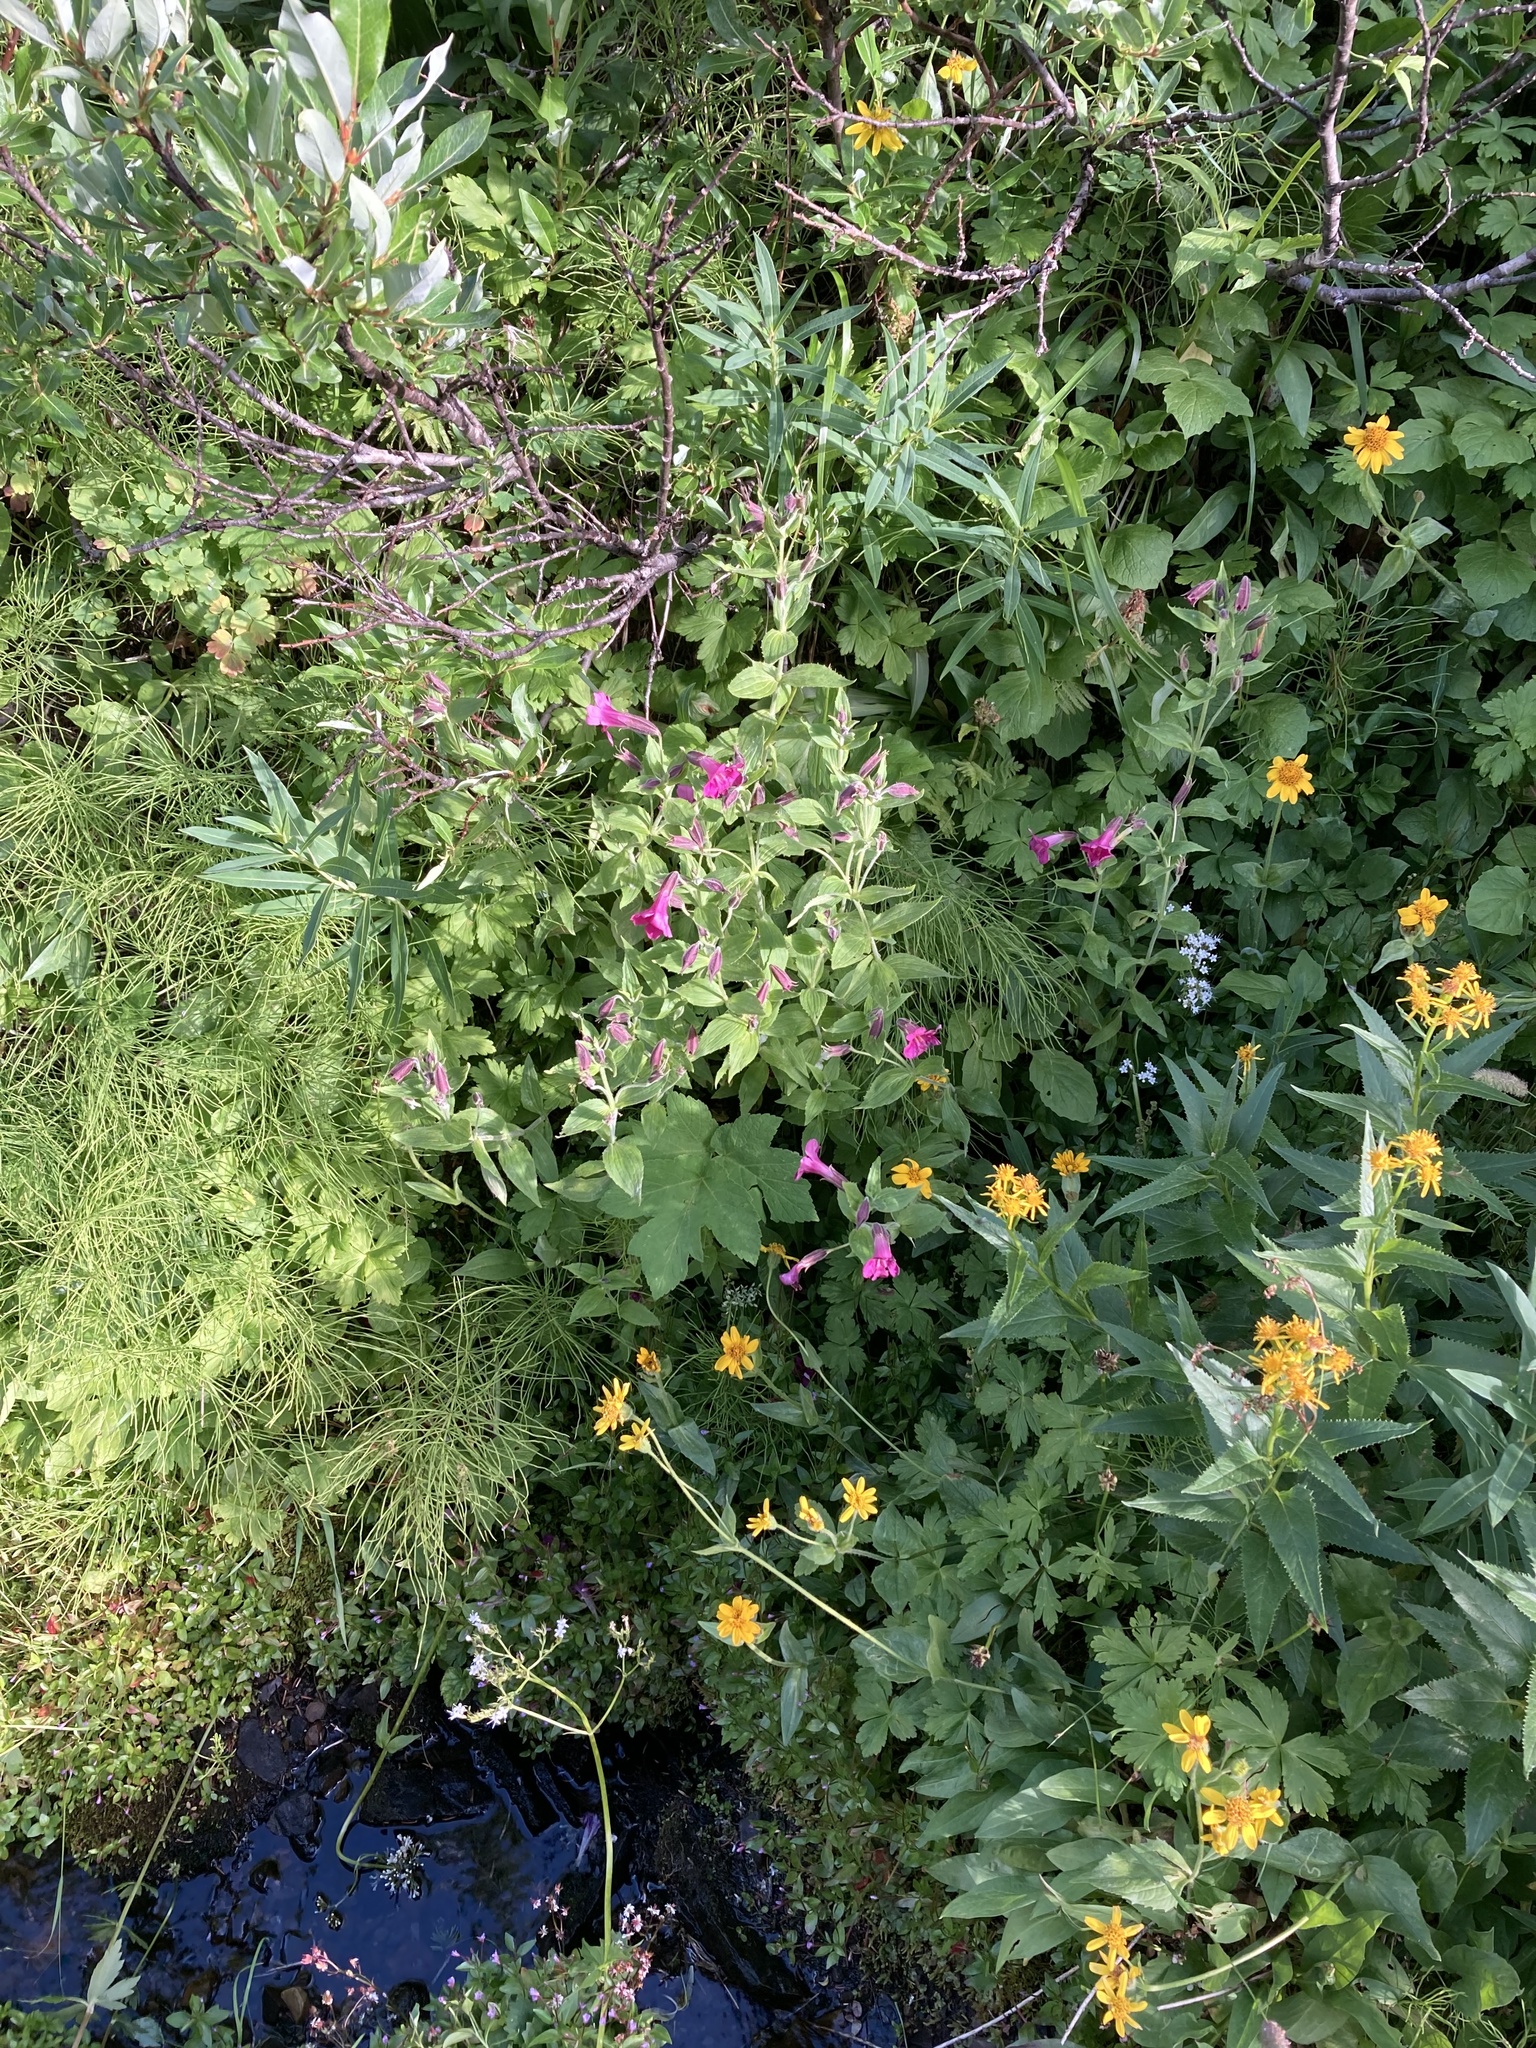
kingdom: Plantae
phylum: Tracheophyta
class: Magnoliopsida
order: Lamiales
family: Phrymaceae
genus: Erythranthe
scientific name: Erythranthe lewisii
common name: Lewis's monkey-flower
